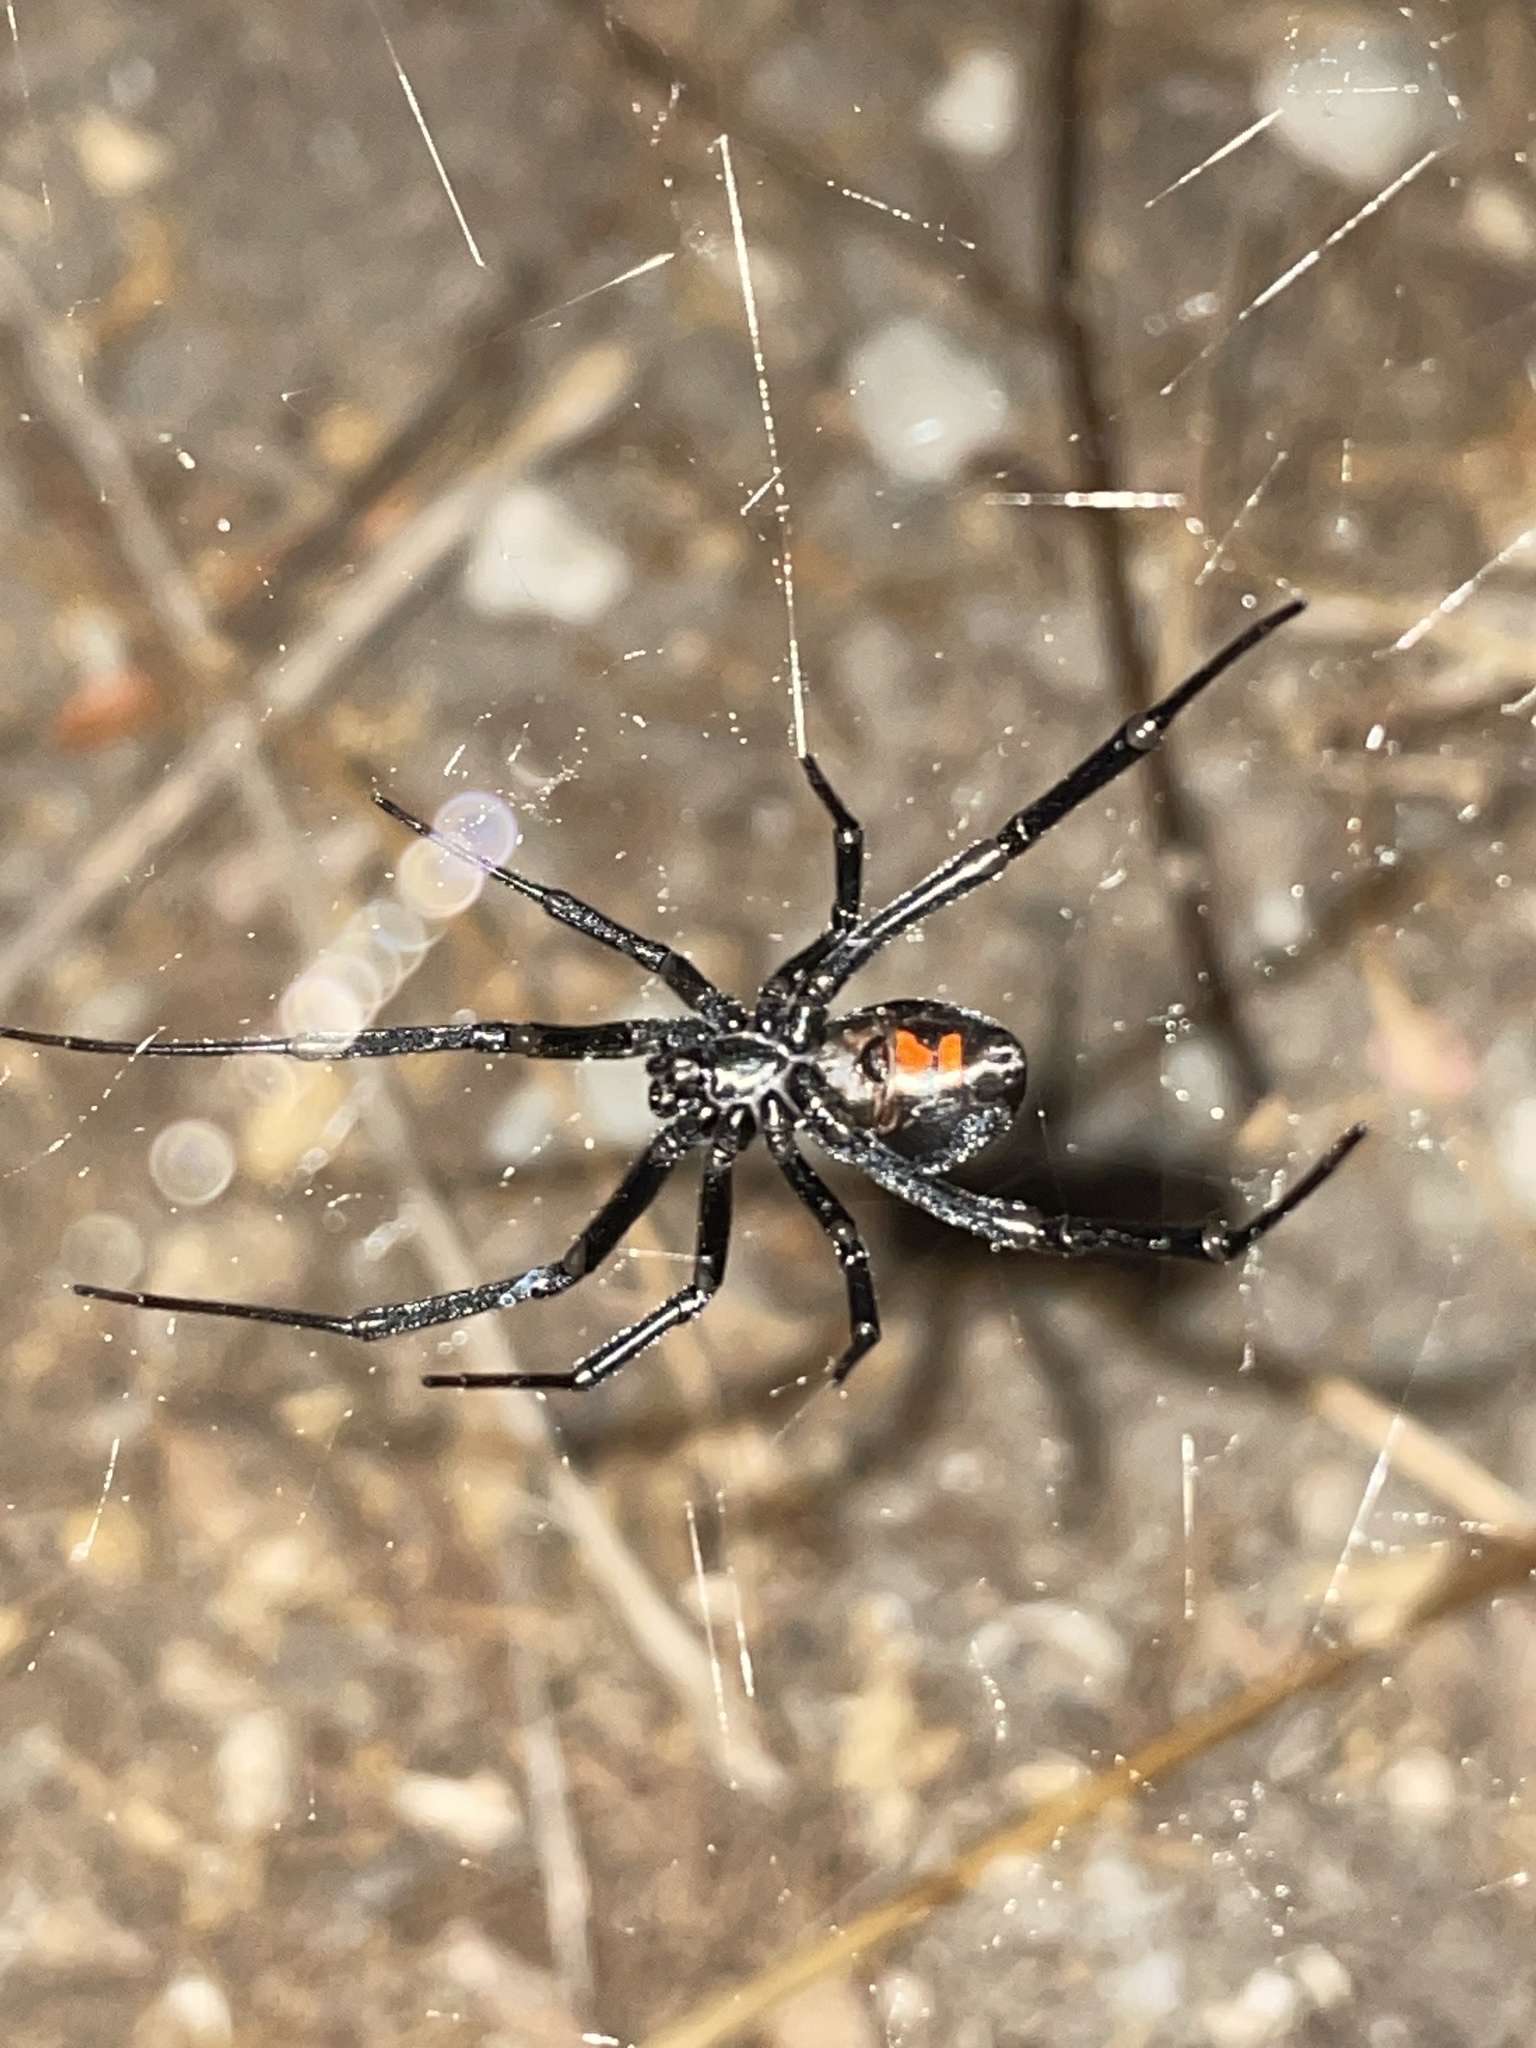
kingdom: Animalia
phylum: Arthropoda
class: Arachnida
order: Araneae
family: Theridiidae
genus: Latrodectus
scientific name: Latrodectus hesperus
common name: Western black widow
